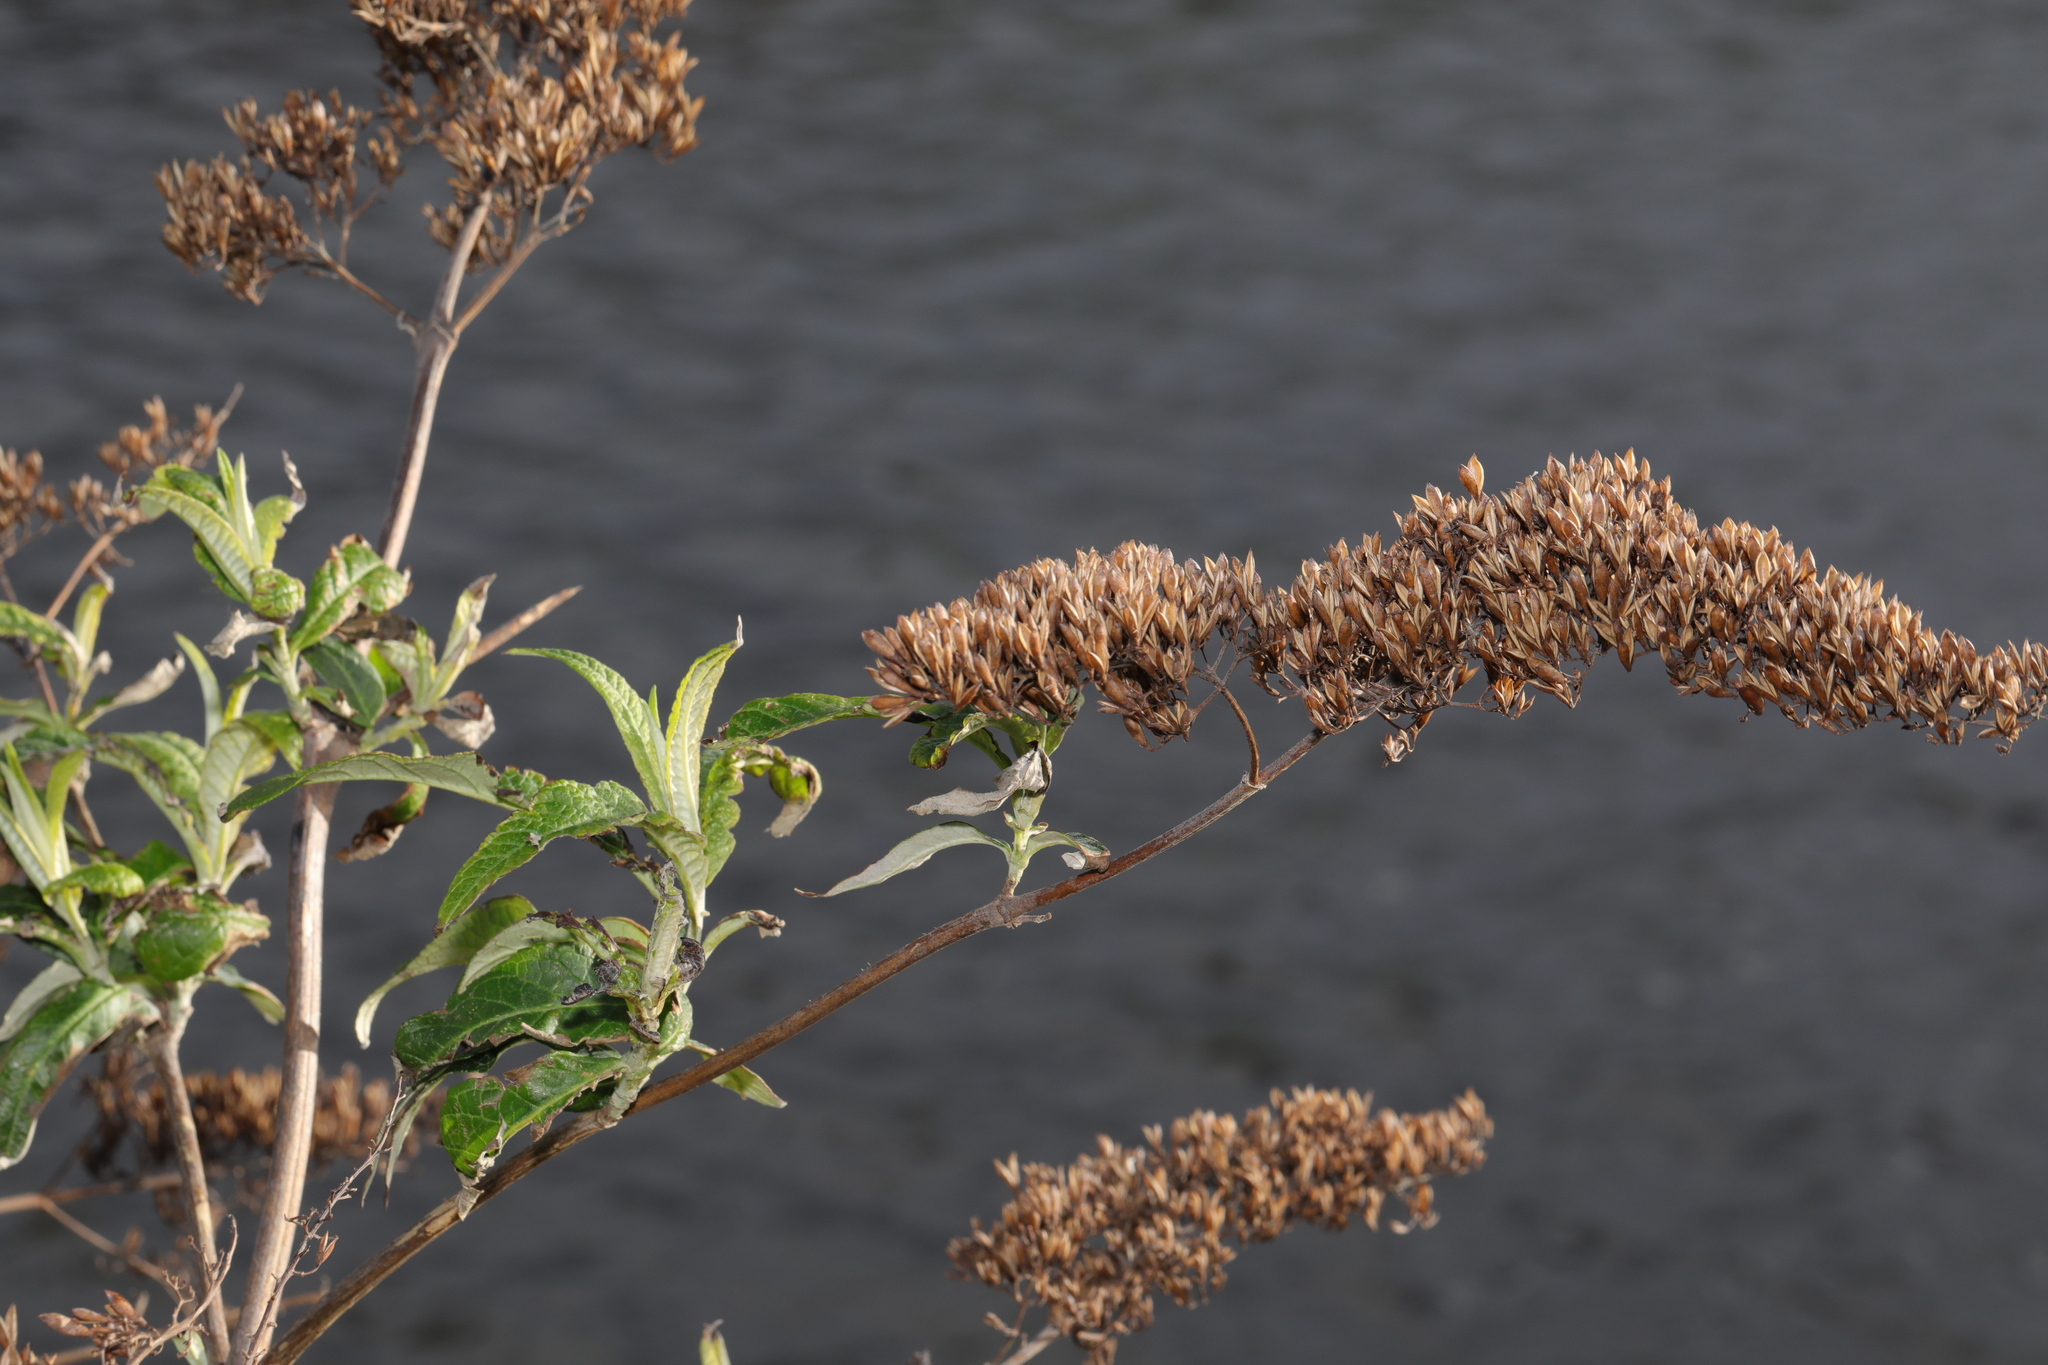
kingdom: Plantae
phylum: Tracheophyta
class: Magnoliopsida
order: Lamiales
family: Scrophulariaceae
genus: Buddleja
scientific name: Buddleja davidii
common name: Butterfly-bush
